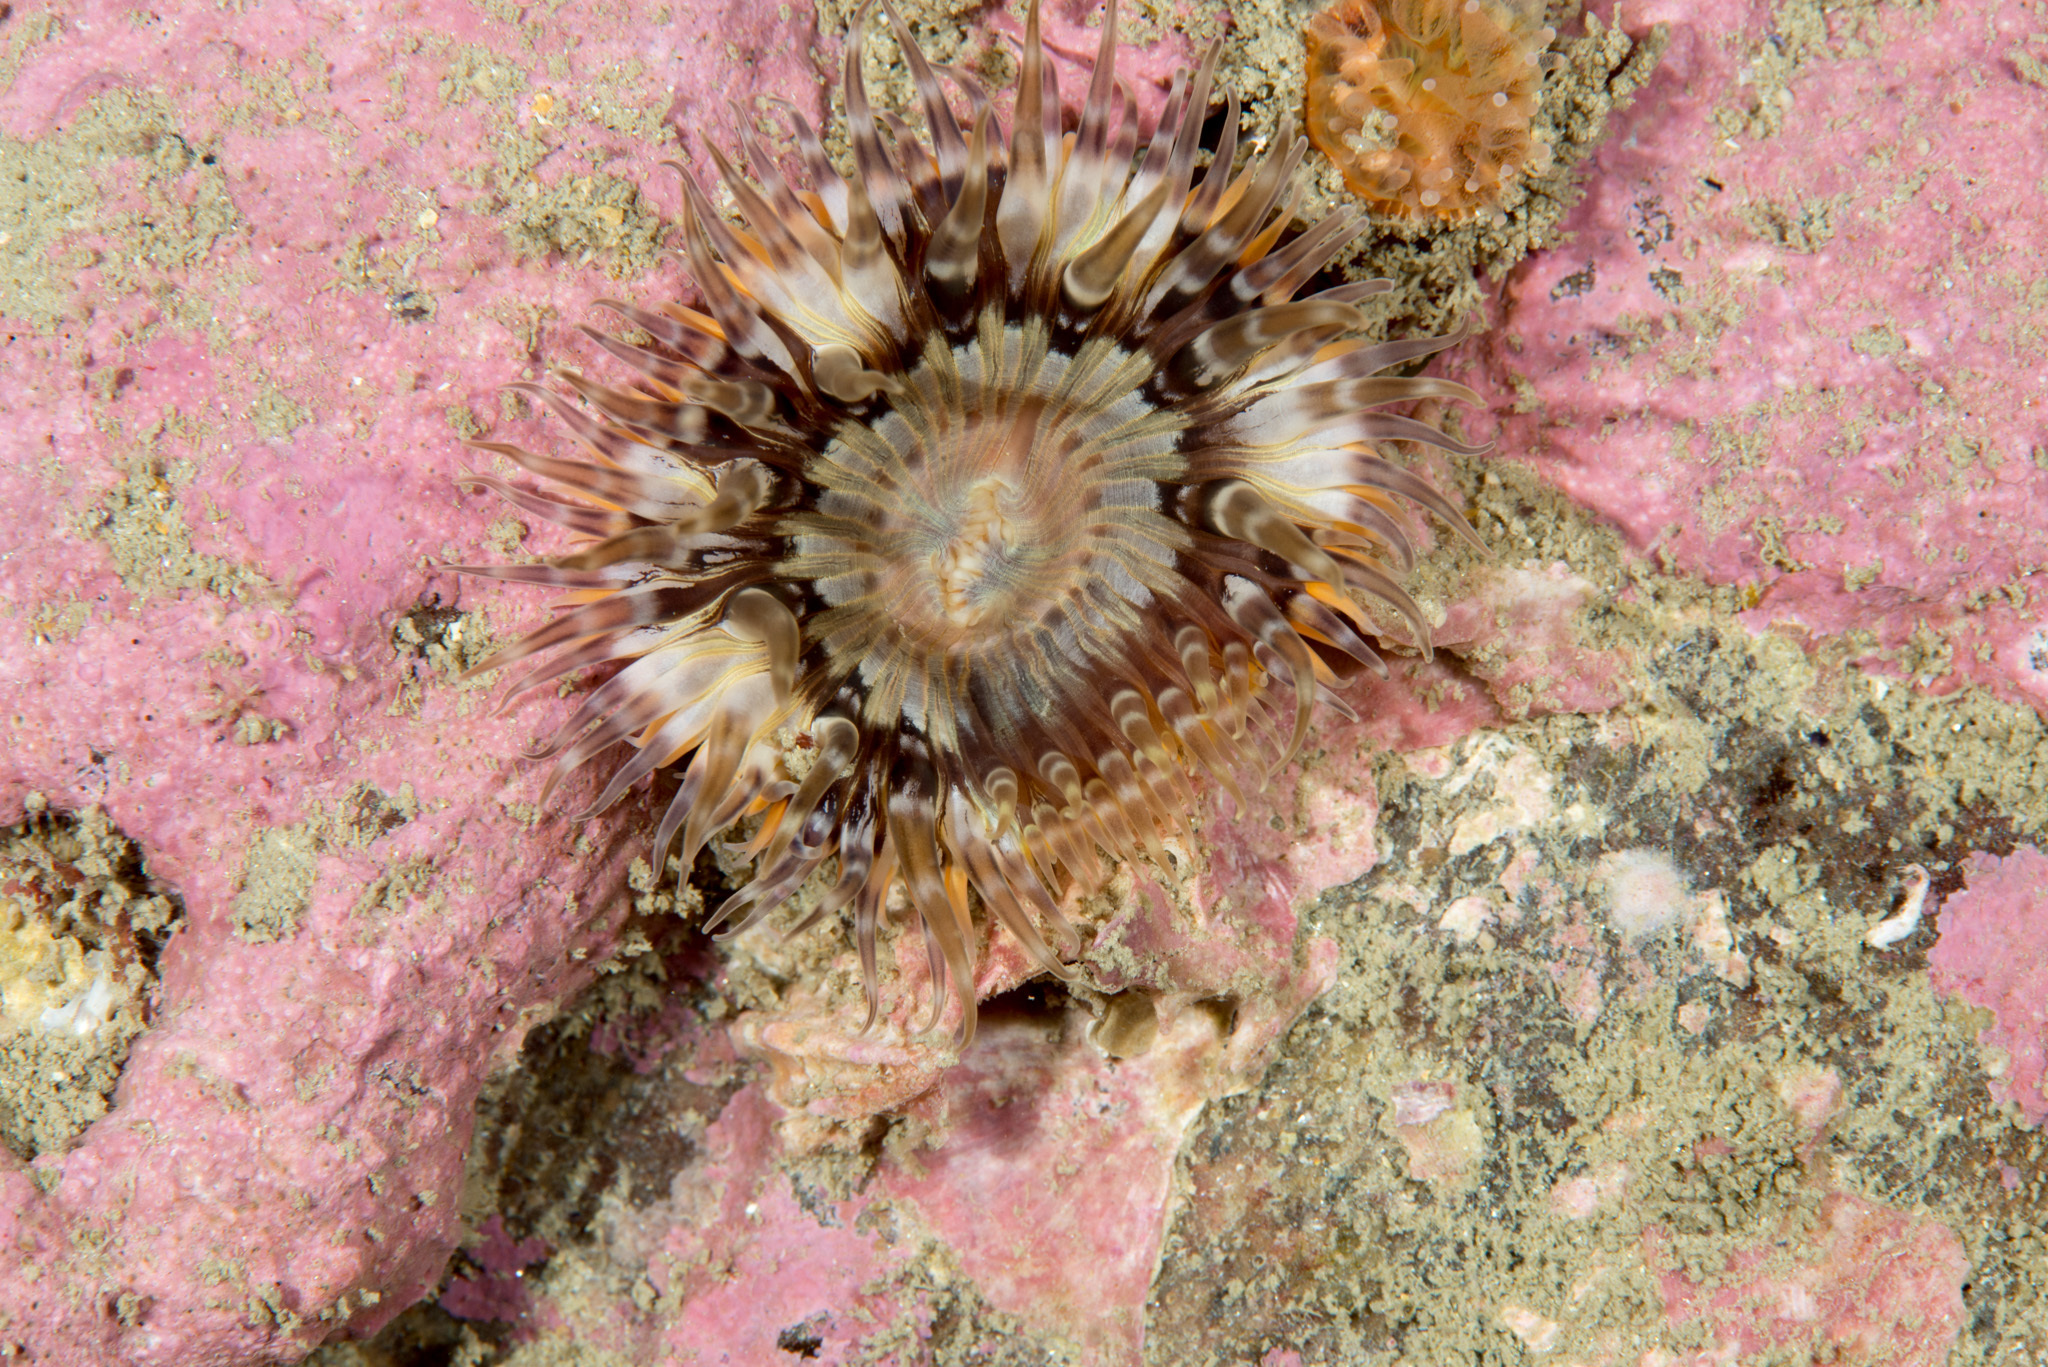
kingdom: Animalia
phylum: Cnidaria
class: Anthozoa
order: Actiniaria
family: Sagartiidae
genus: Cylista
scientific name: Cylista elegans
